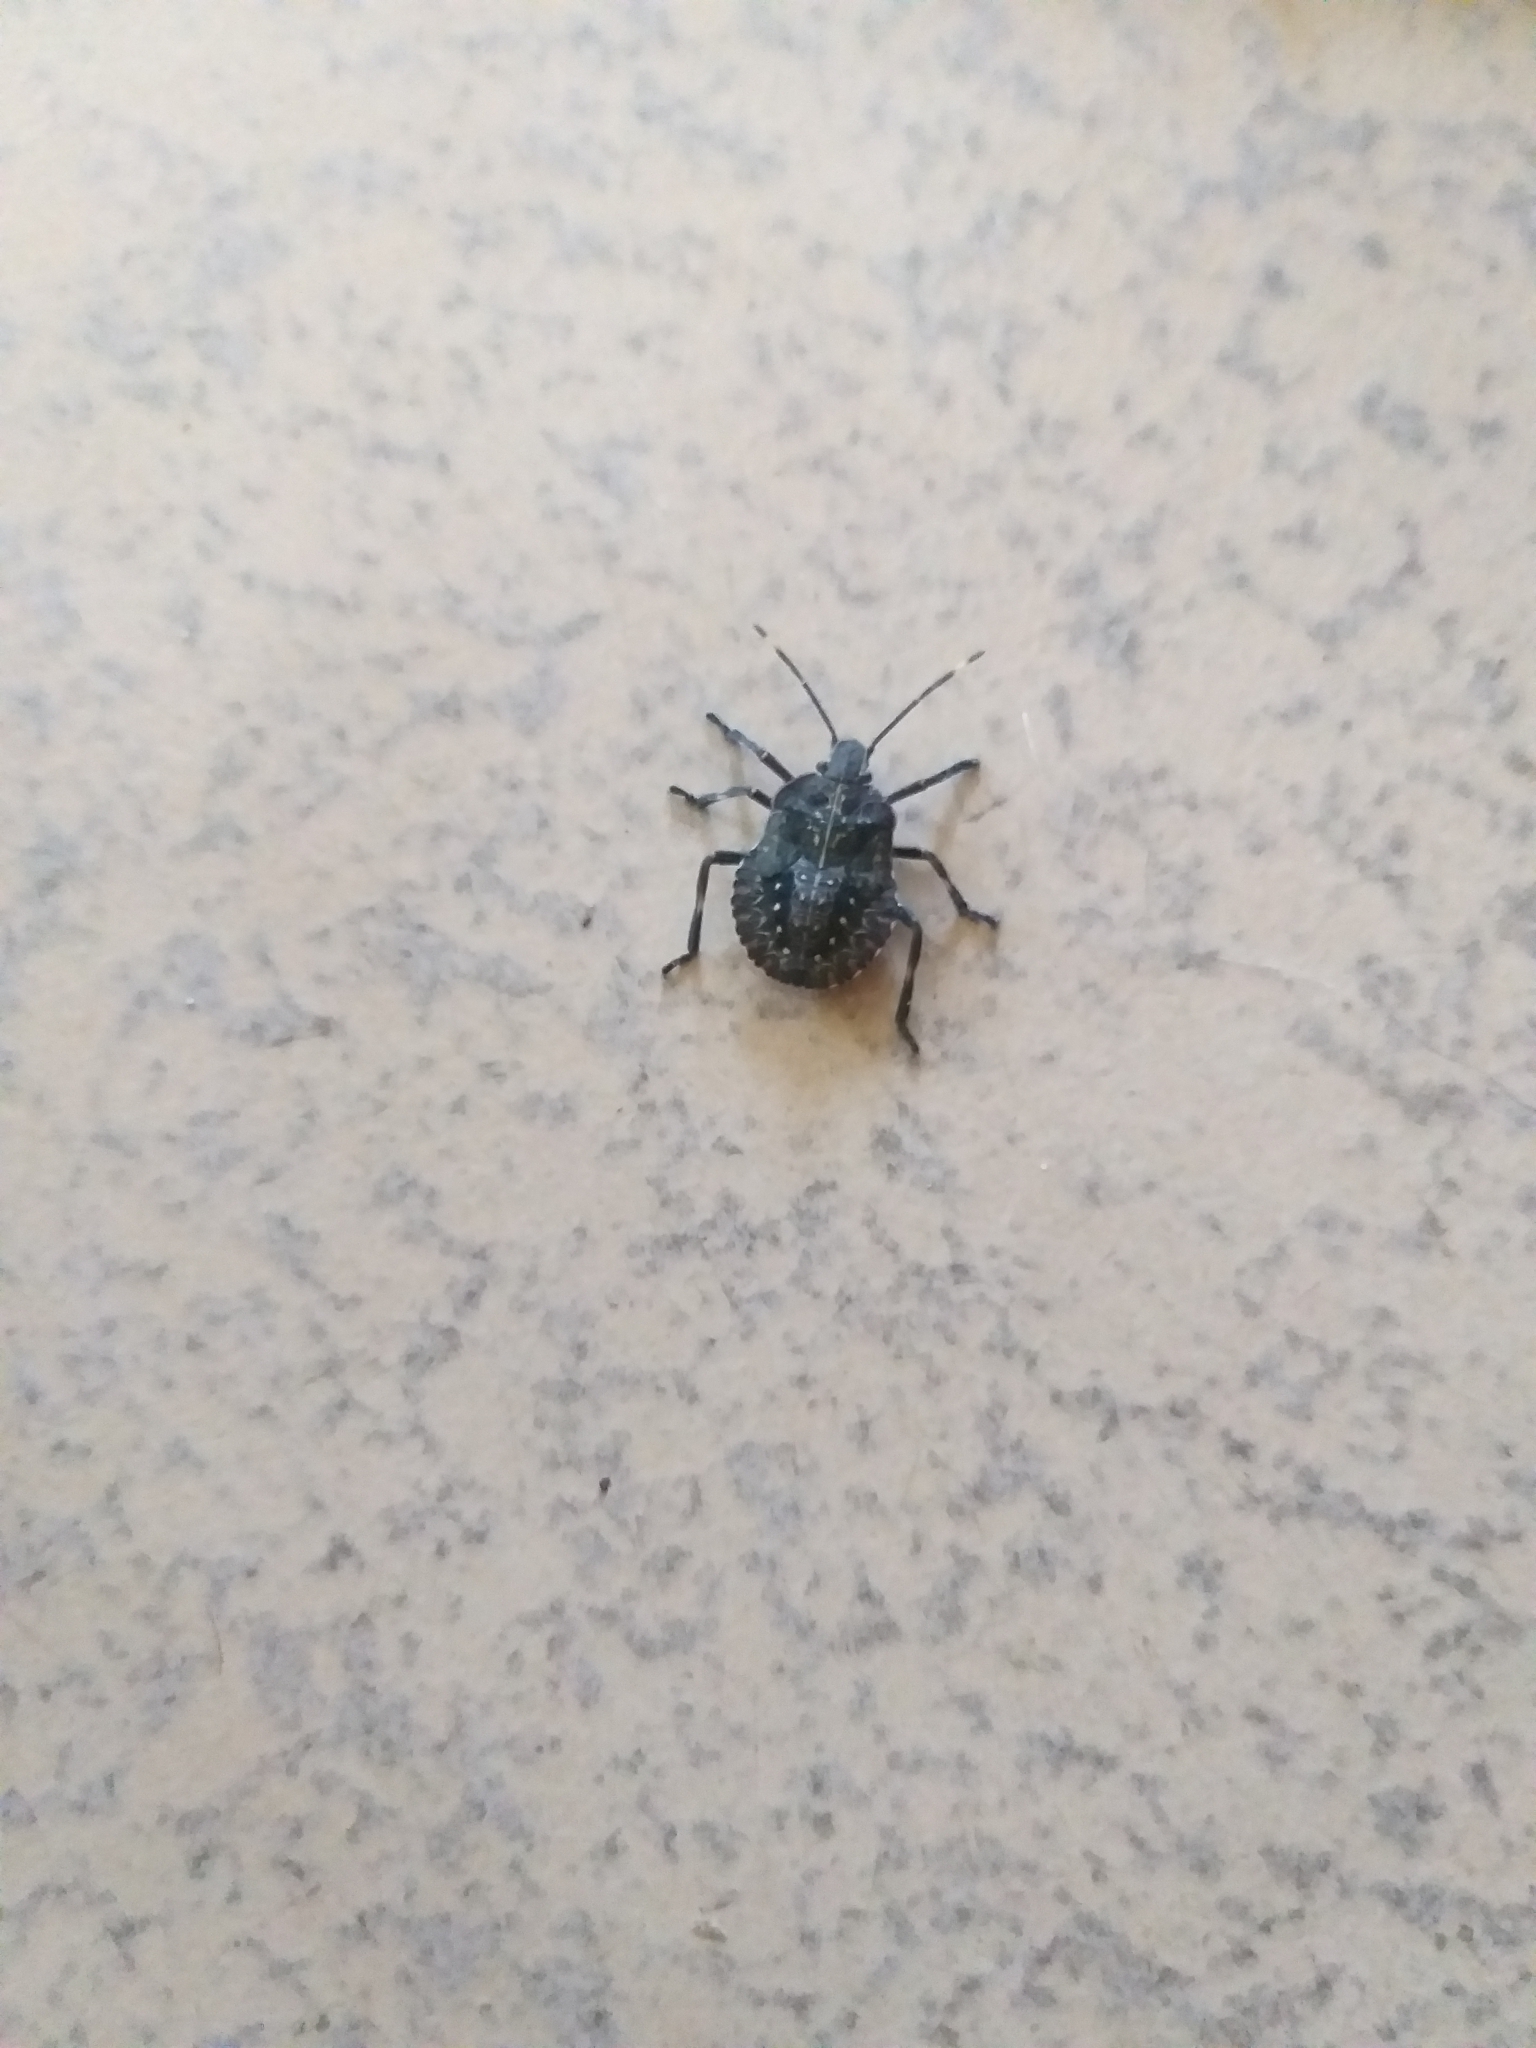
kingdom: Animalia
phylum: Arthropoda
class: Insecta
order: Hemiptera
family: Pentatomidae
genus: Coenomorpha
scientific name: Coenomorpha nervosa
